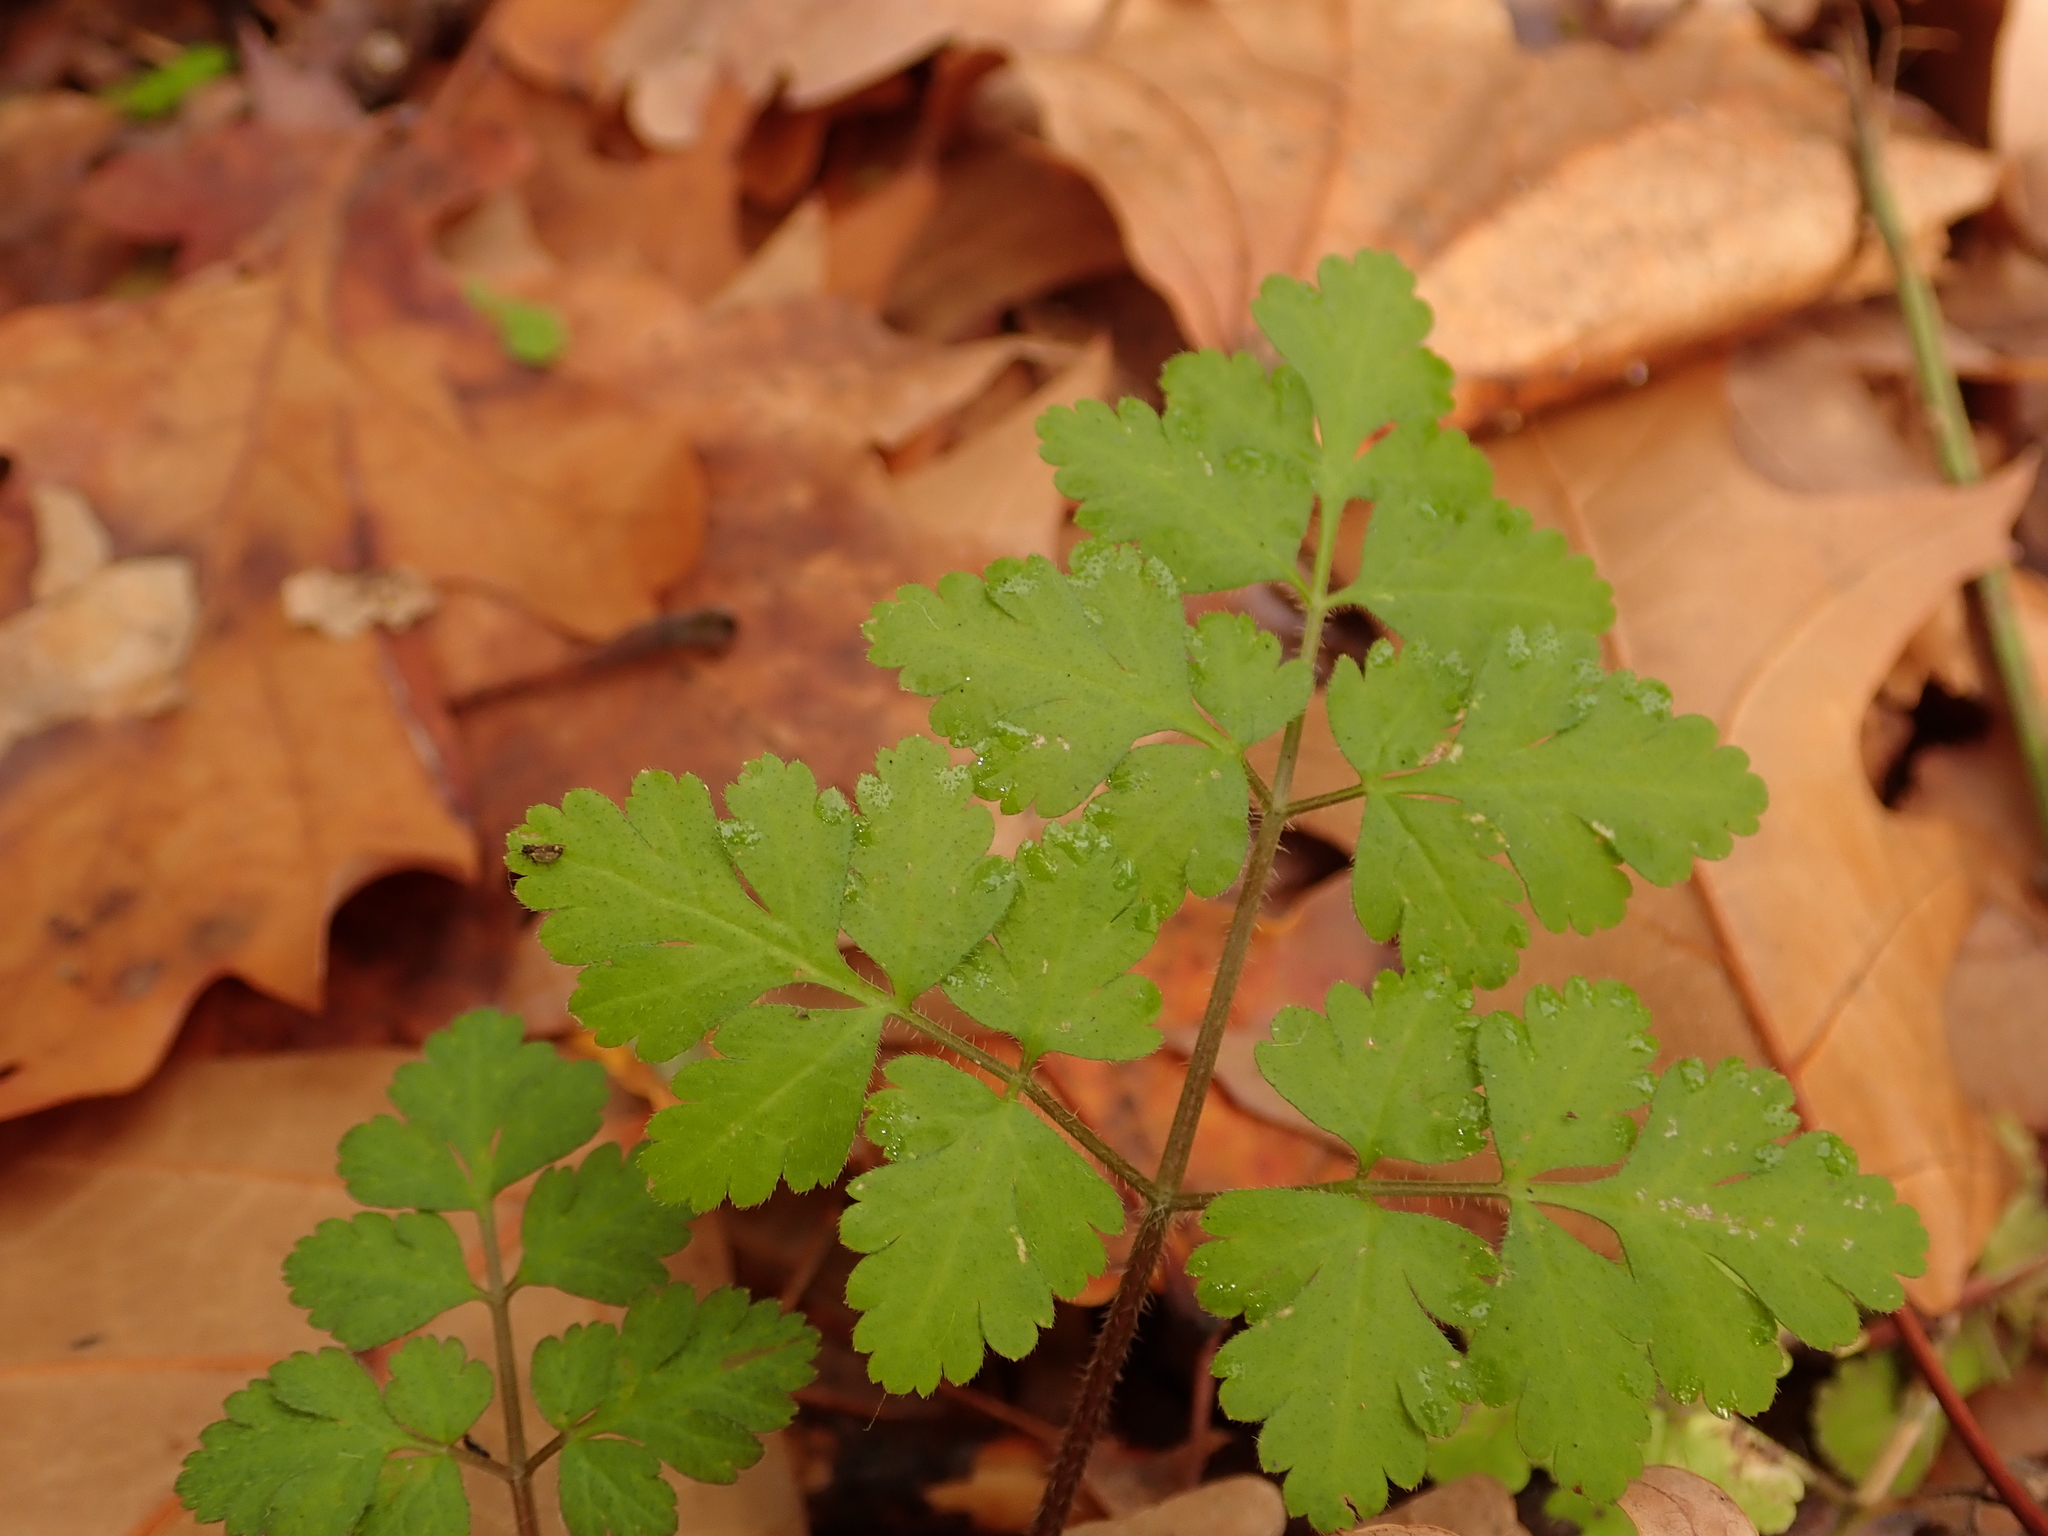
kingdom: Plantae
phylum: Tracheophyta
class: Magnoliopsida
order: Apiales
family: Apiaceae
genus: Chaerophyllum
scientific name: Chaerophyllum temulum
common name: Rough chervil
